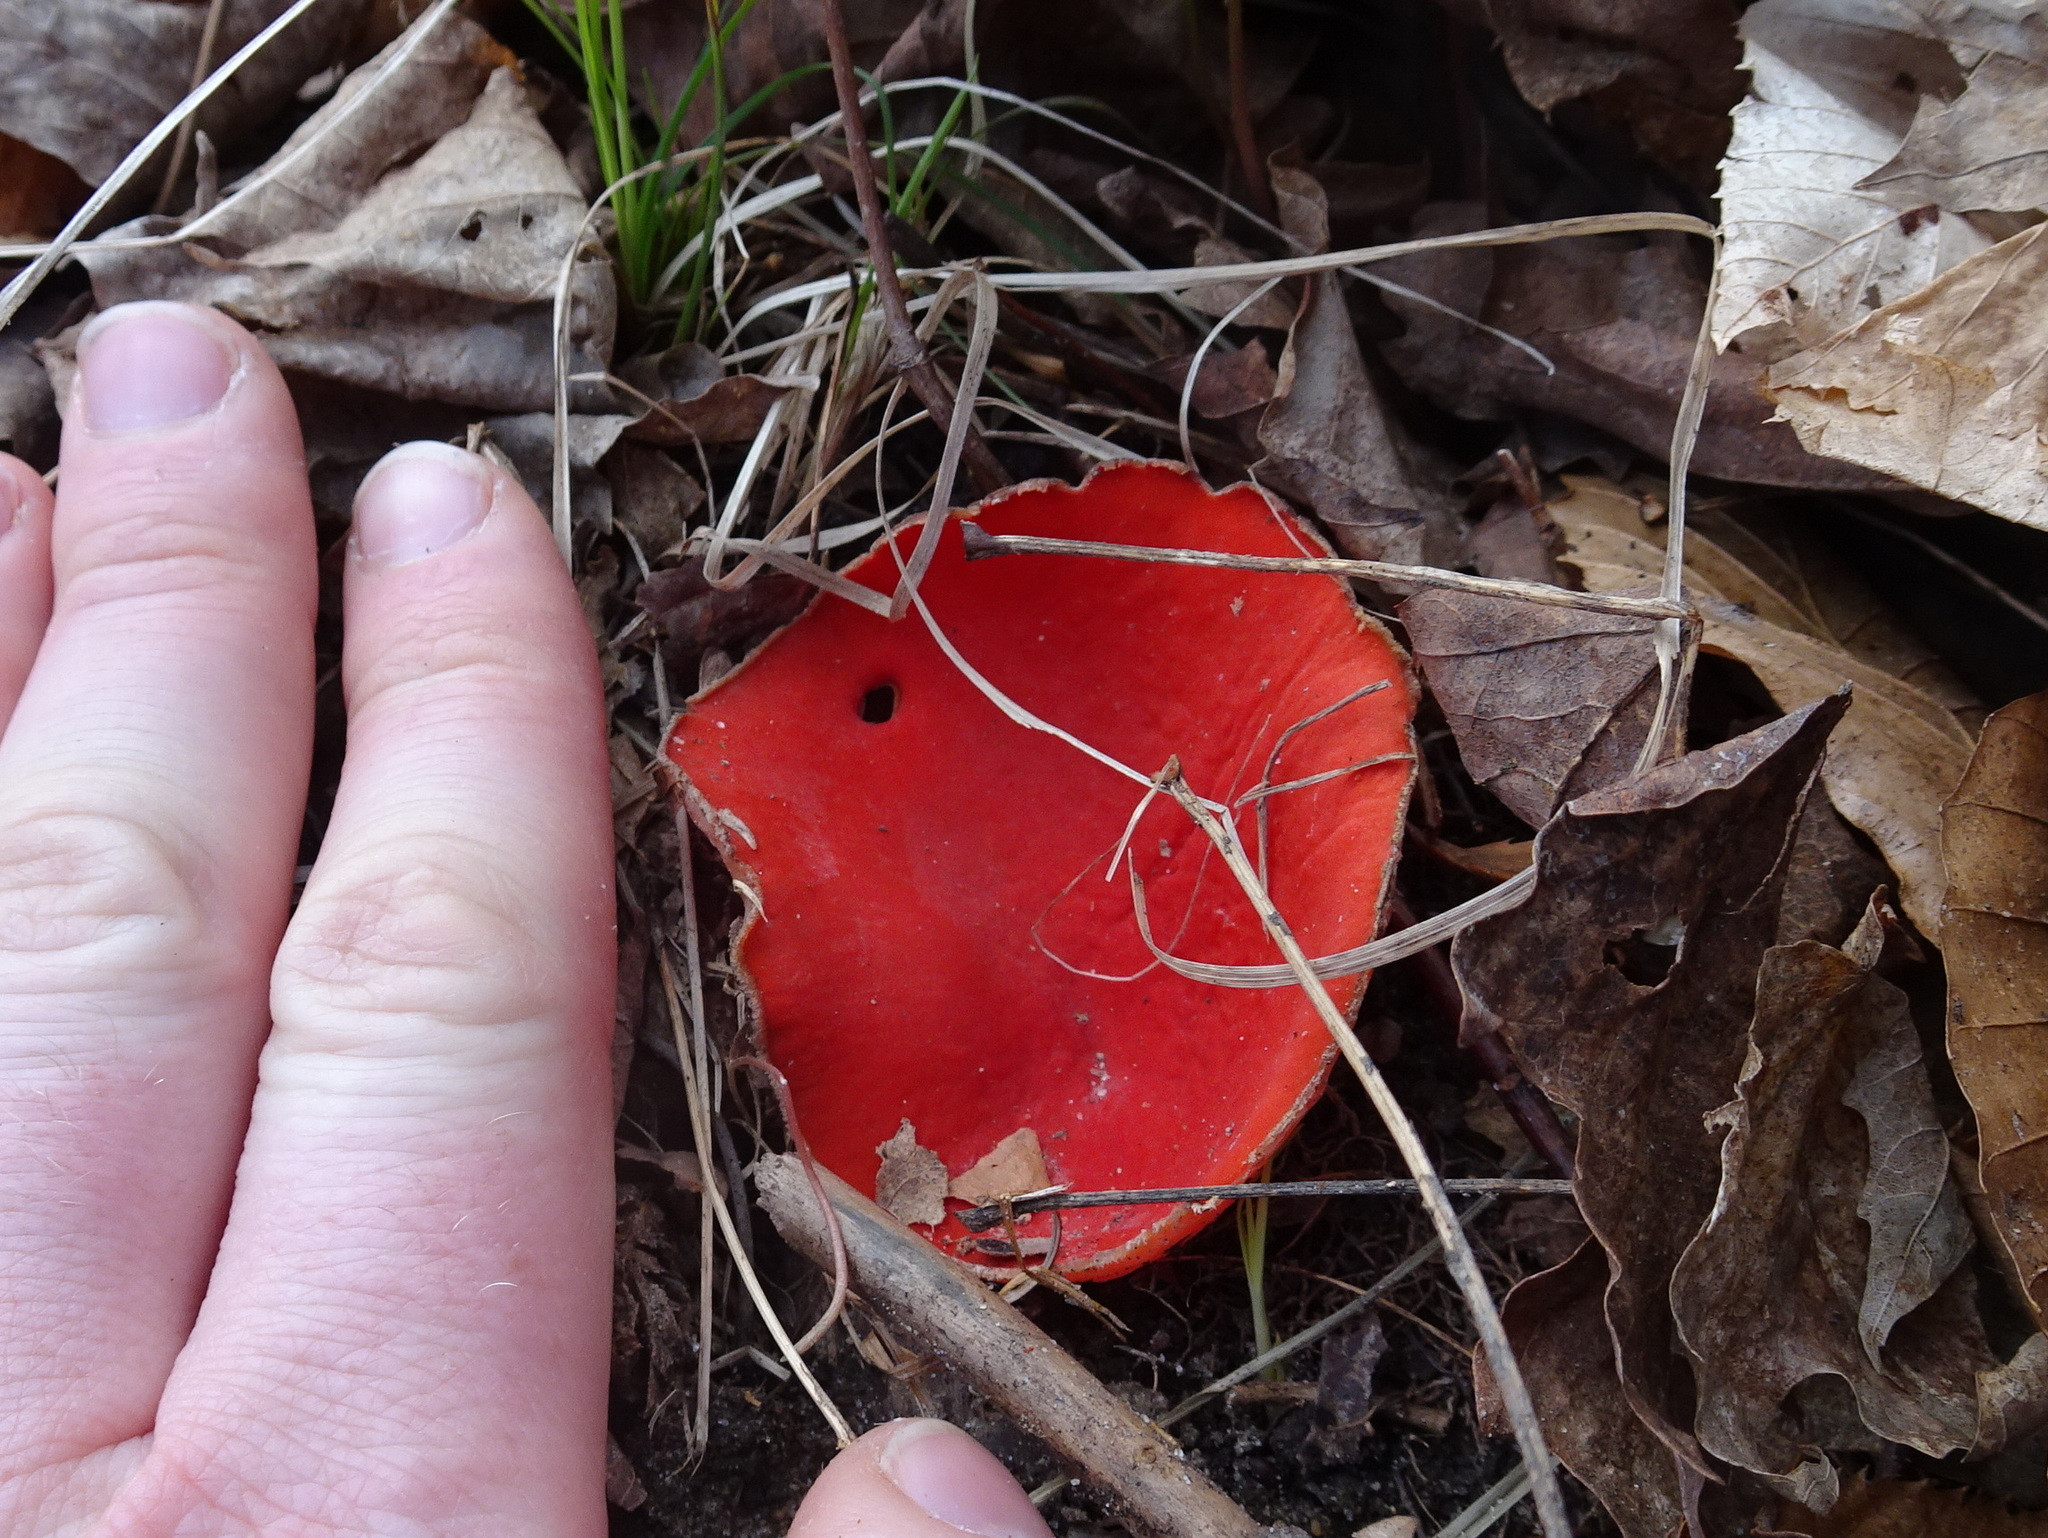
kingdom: Fungi
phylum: Ascomycota
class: Pezizomycetes
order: Pezizales
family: Sarcoscyphaceae
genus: Sarcoscypha
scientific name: Sarcoscypha
